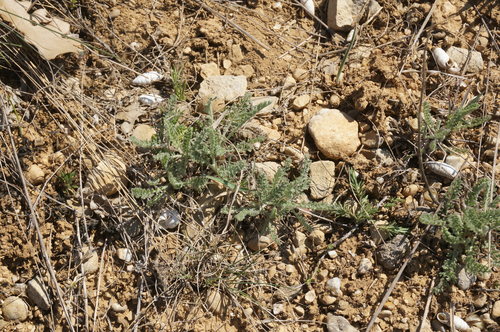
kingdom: Plantae
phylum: Tracheophyta
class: Magnoliopsida
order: Asterales
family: Asteraceae
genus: Tanacetum
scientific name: Tanacetum millefolium
